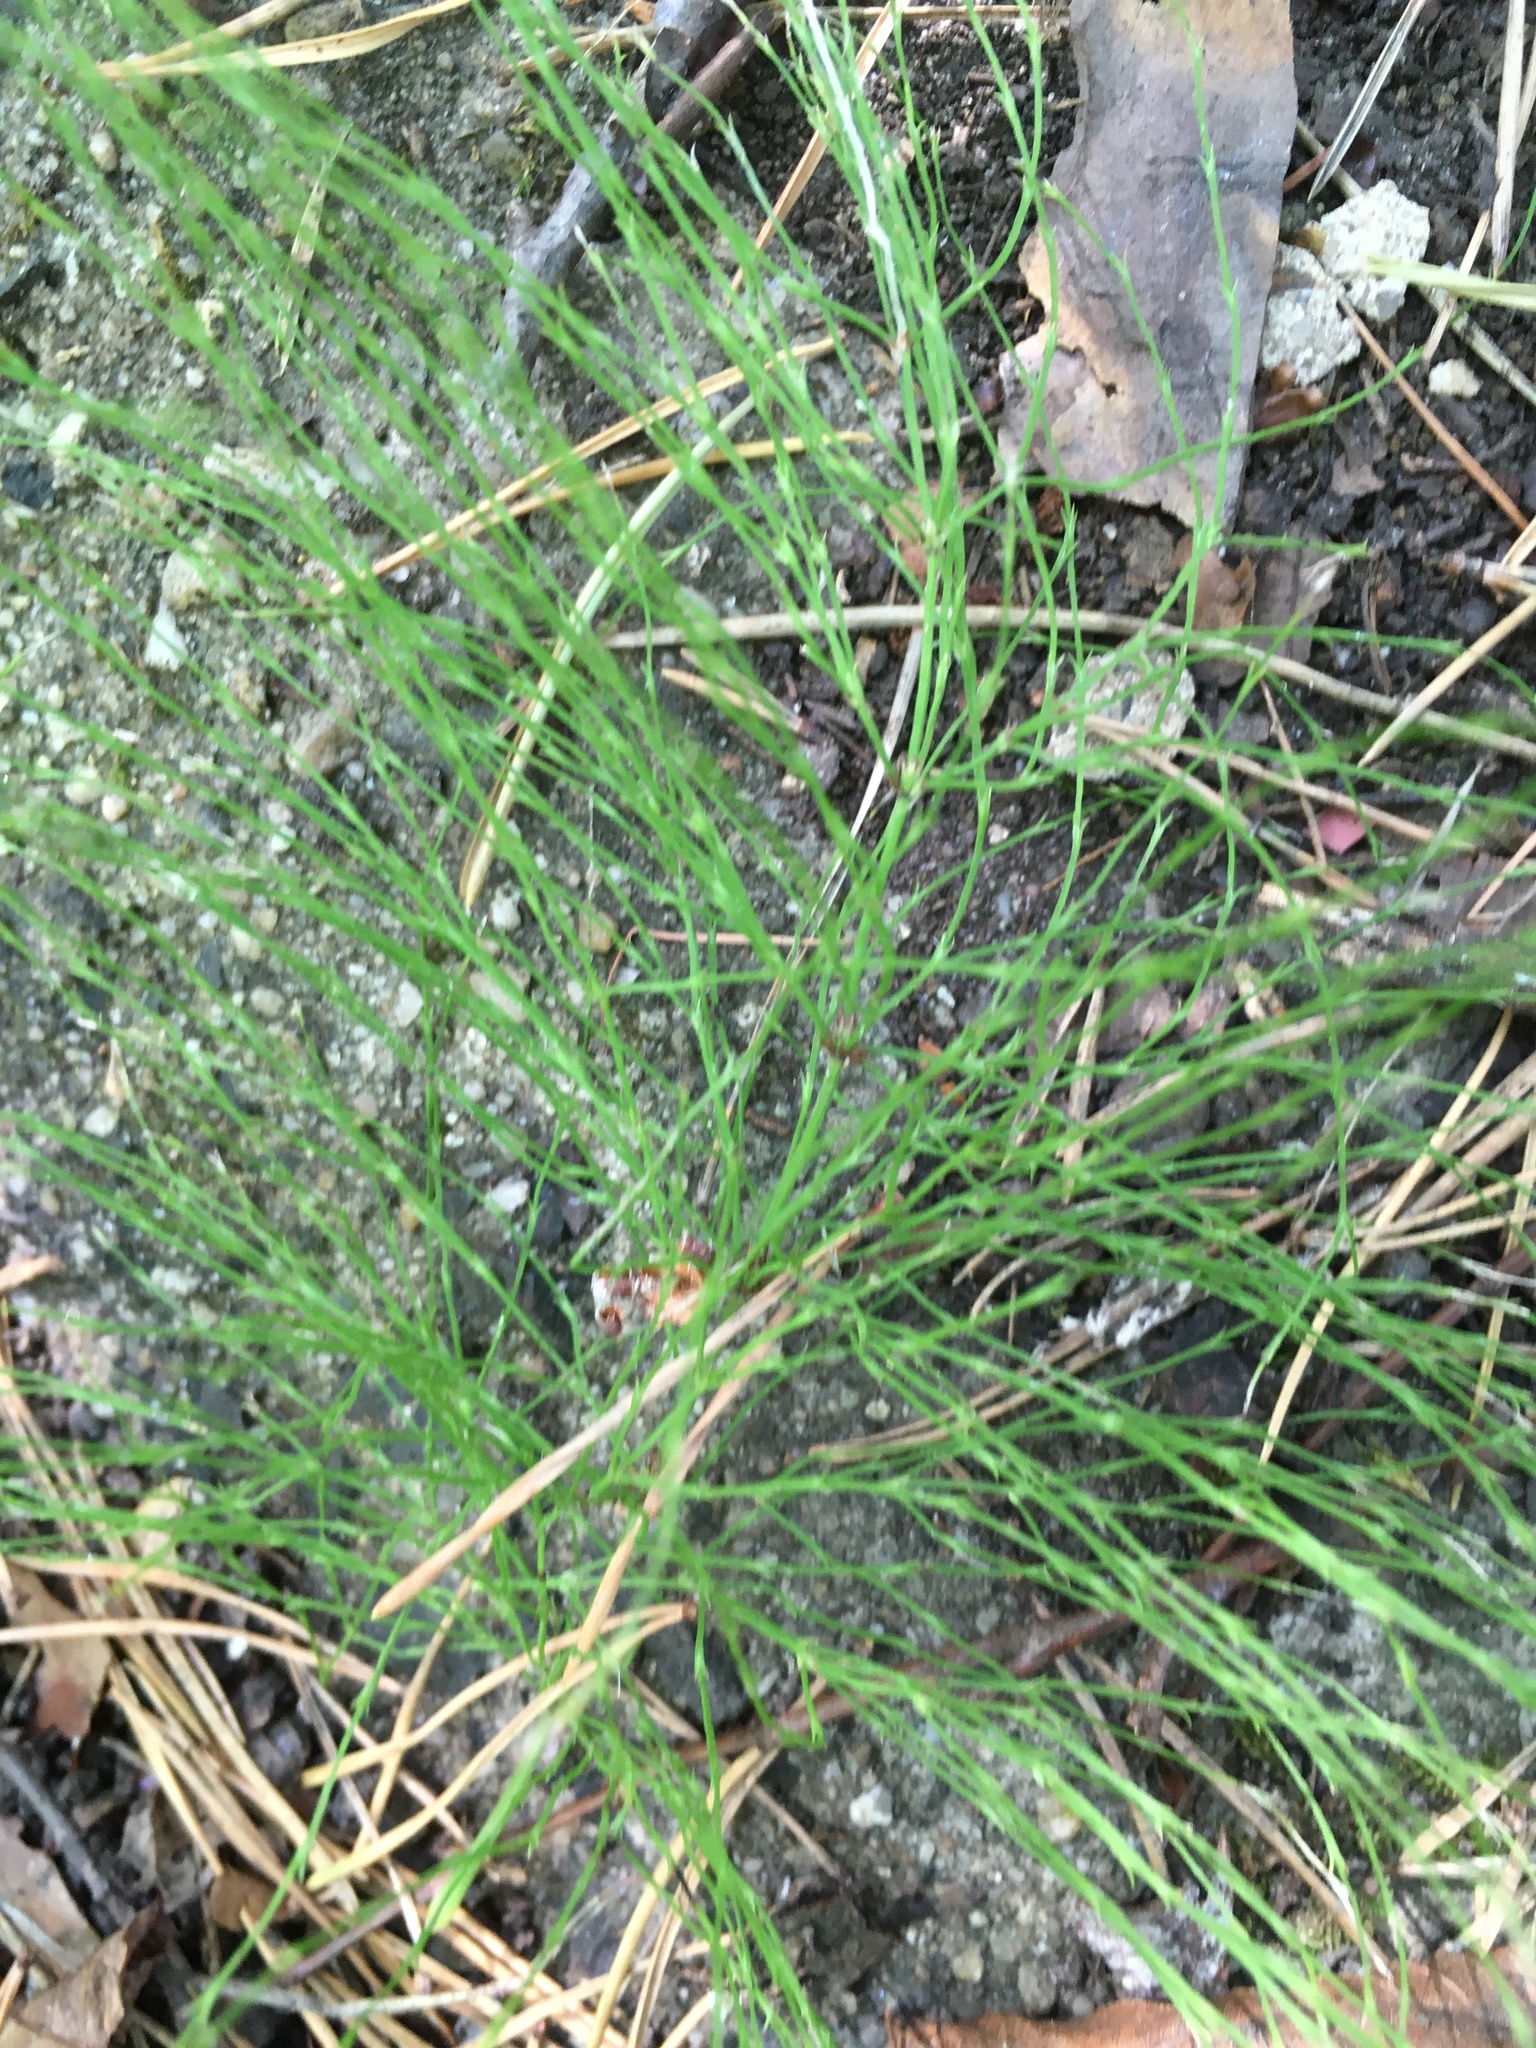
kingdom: Plantae
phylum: Tracheophyta
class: Polypodiopsida
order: Equisetales
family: Equisetaceae
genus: Equisetum
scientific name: Equisetum arvense
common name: Field horsetail
